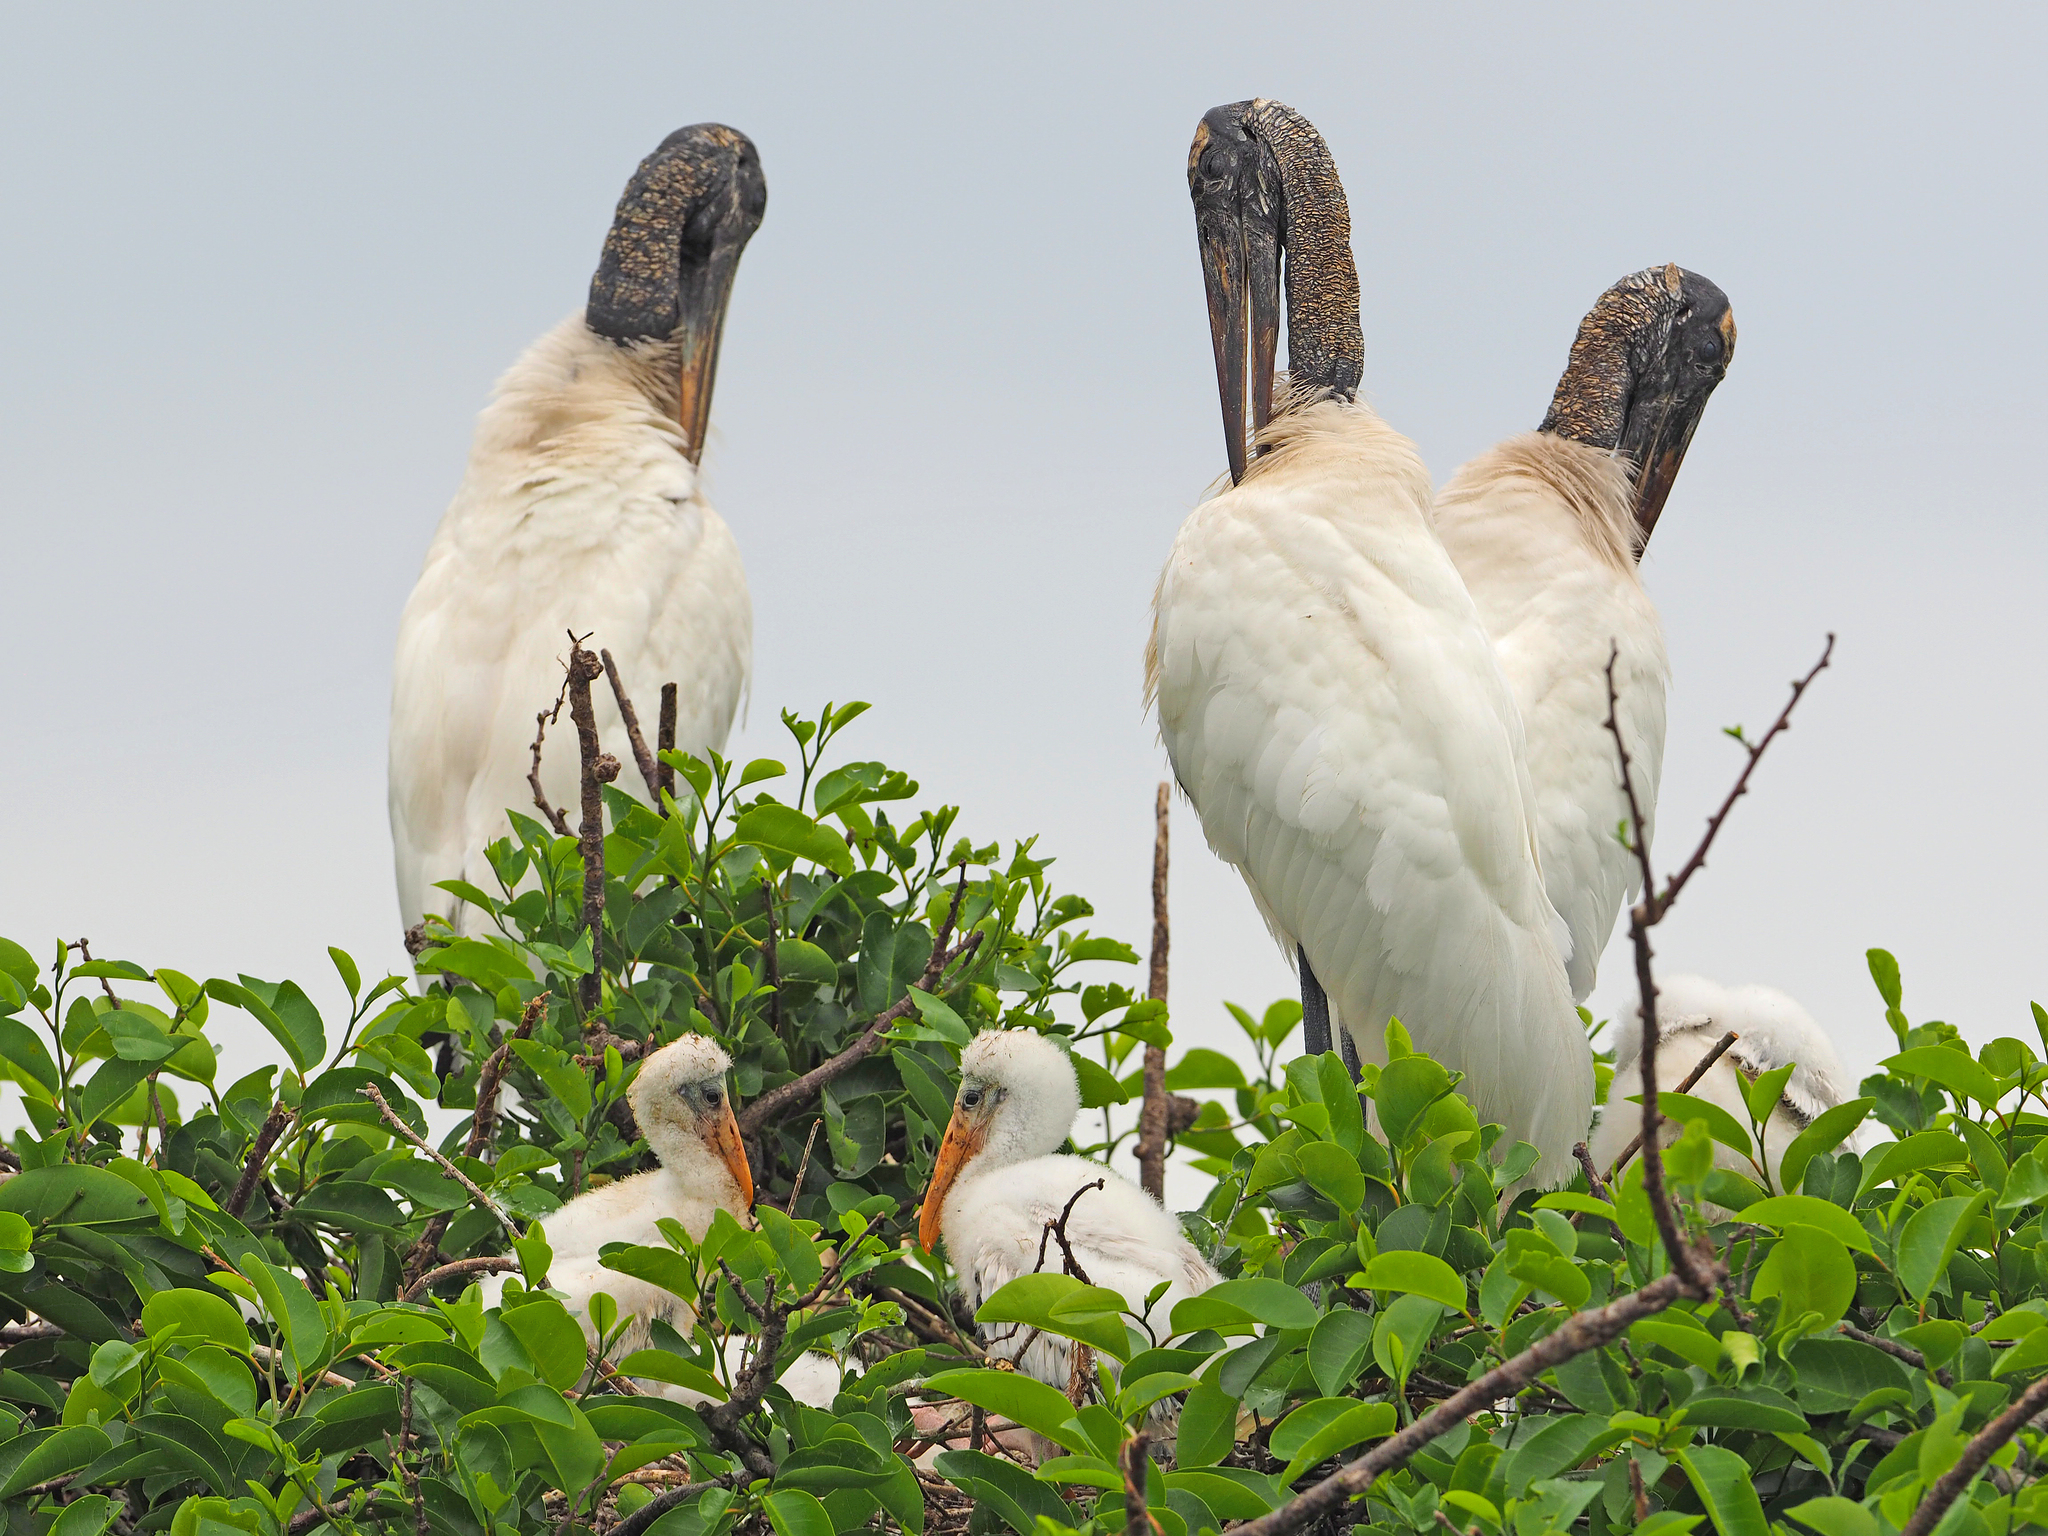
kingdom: Animalia
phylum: Chordata
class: Aves
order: Ciconiiformes
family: Ciconiidae
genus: Mycteria
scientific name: Mycteria americana
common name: Wood stork
